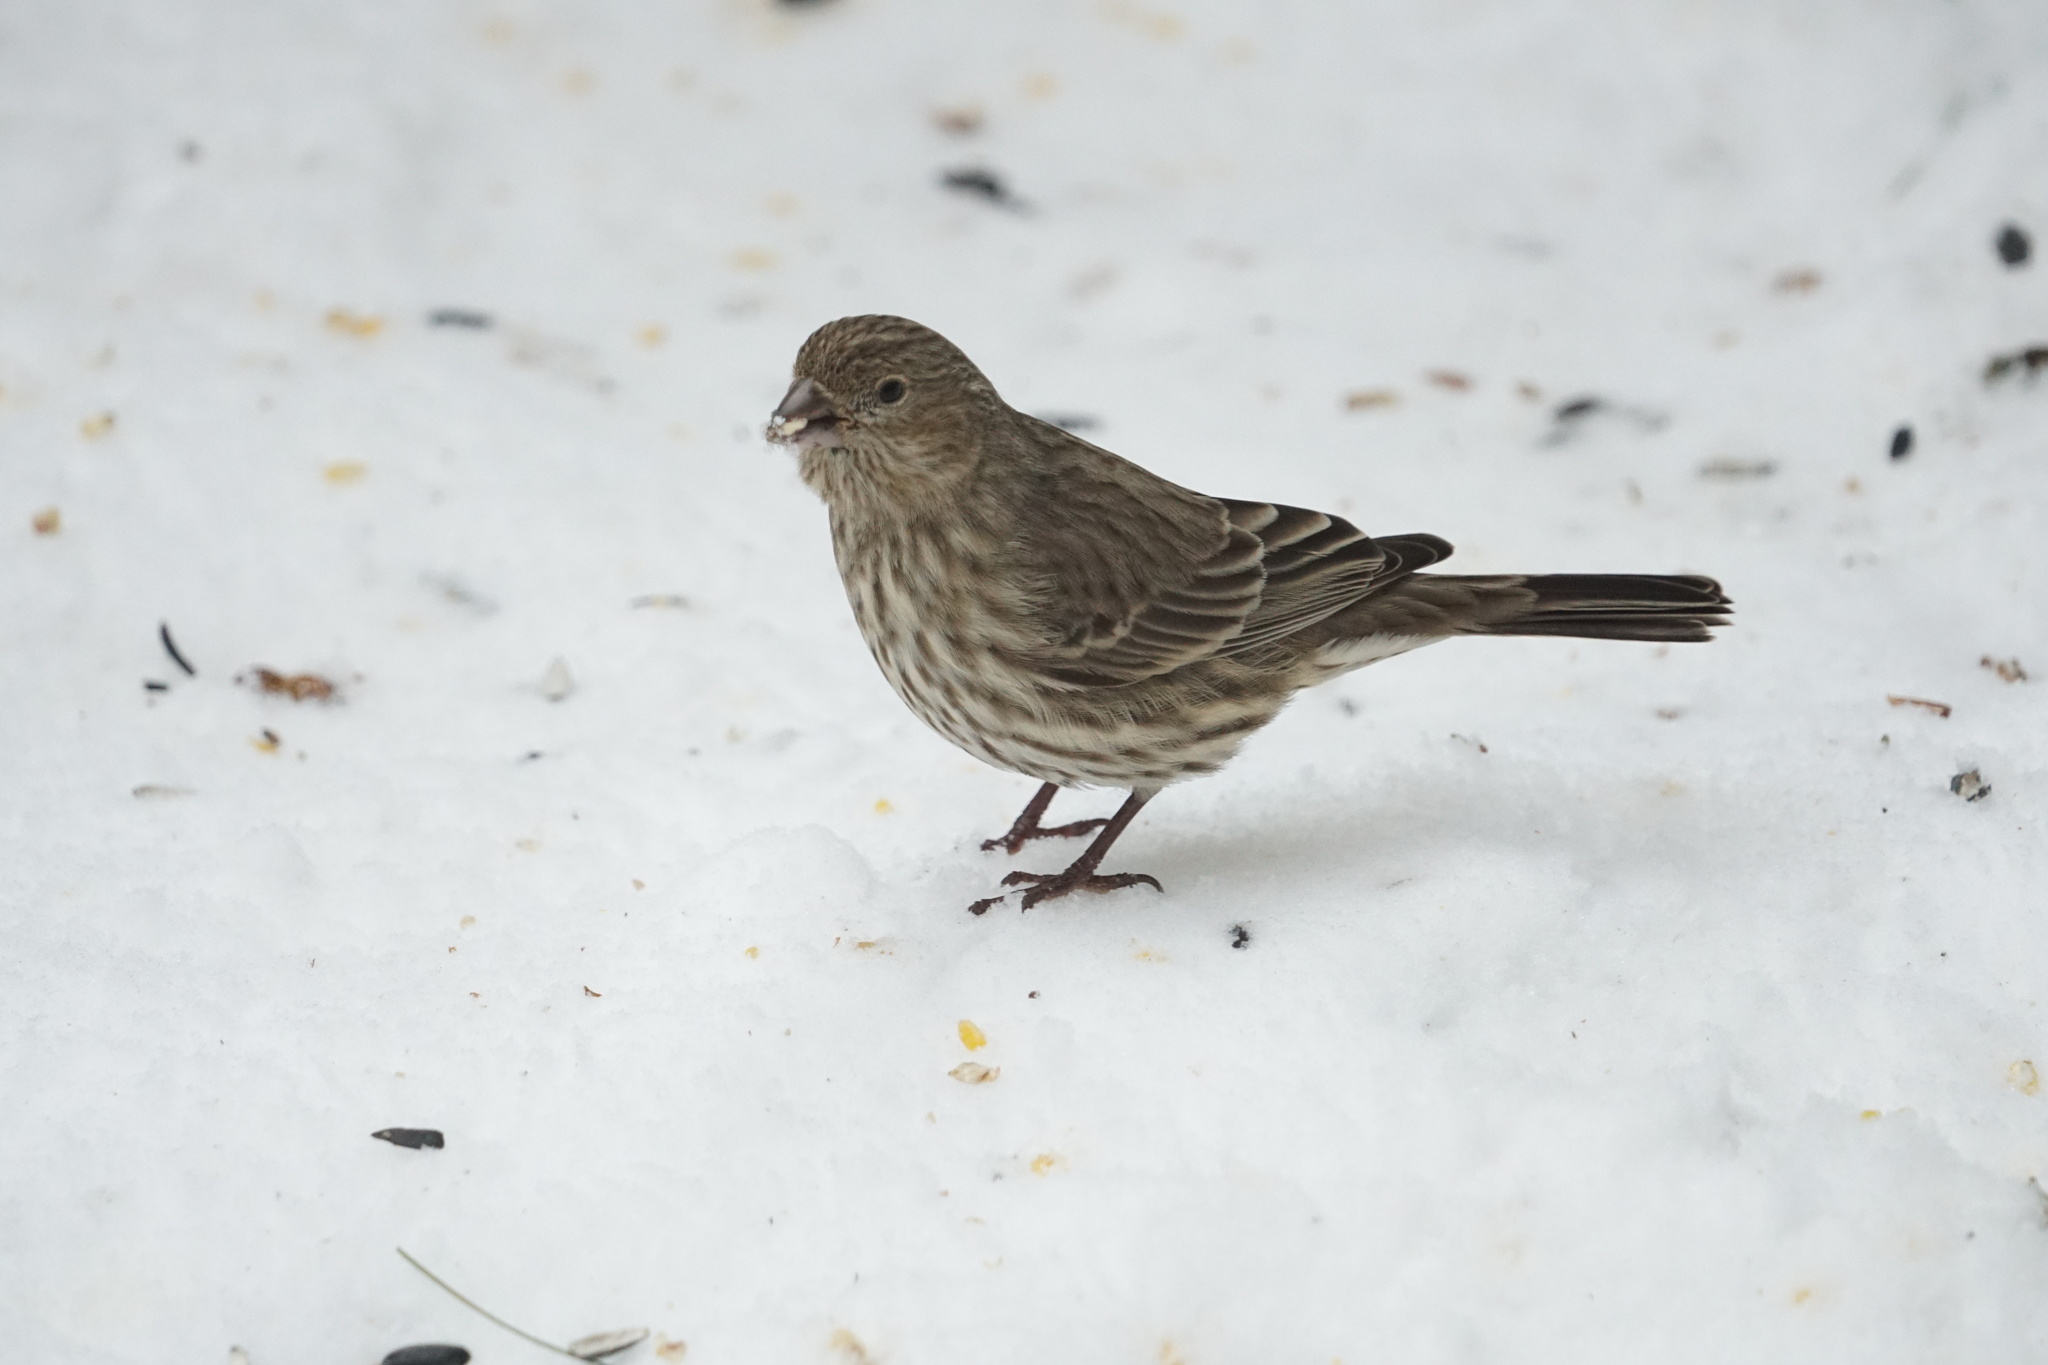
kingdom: Animalia
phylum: Chordata
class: Aves
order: Passeriformes
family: Fringillidae
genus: Haemorhous
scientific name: Haemorhous mexicanus
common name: House finch
